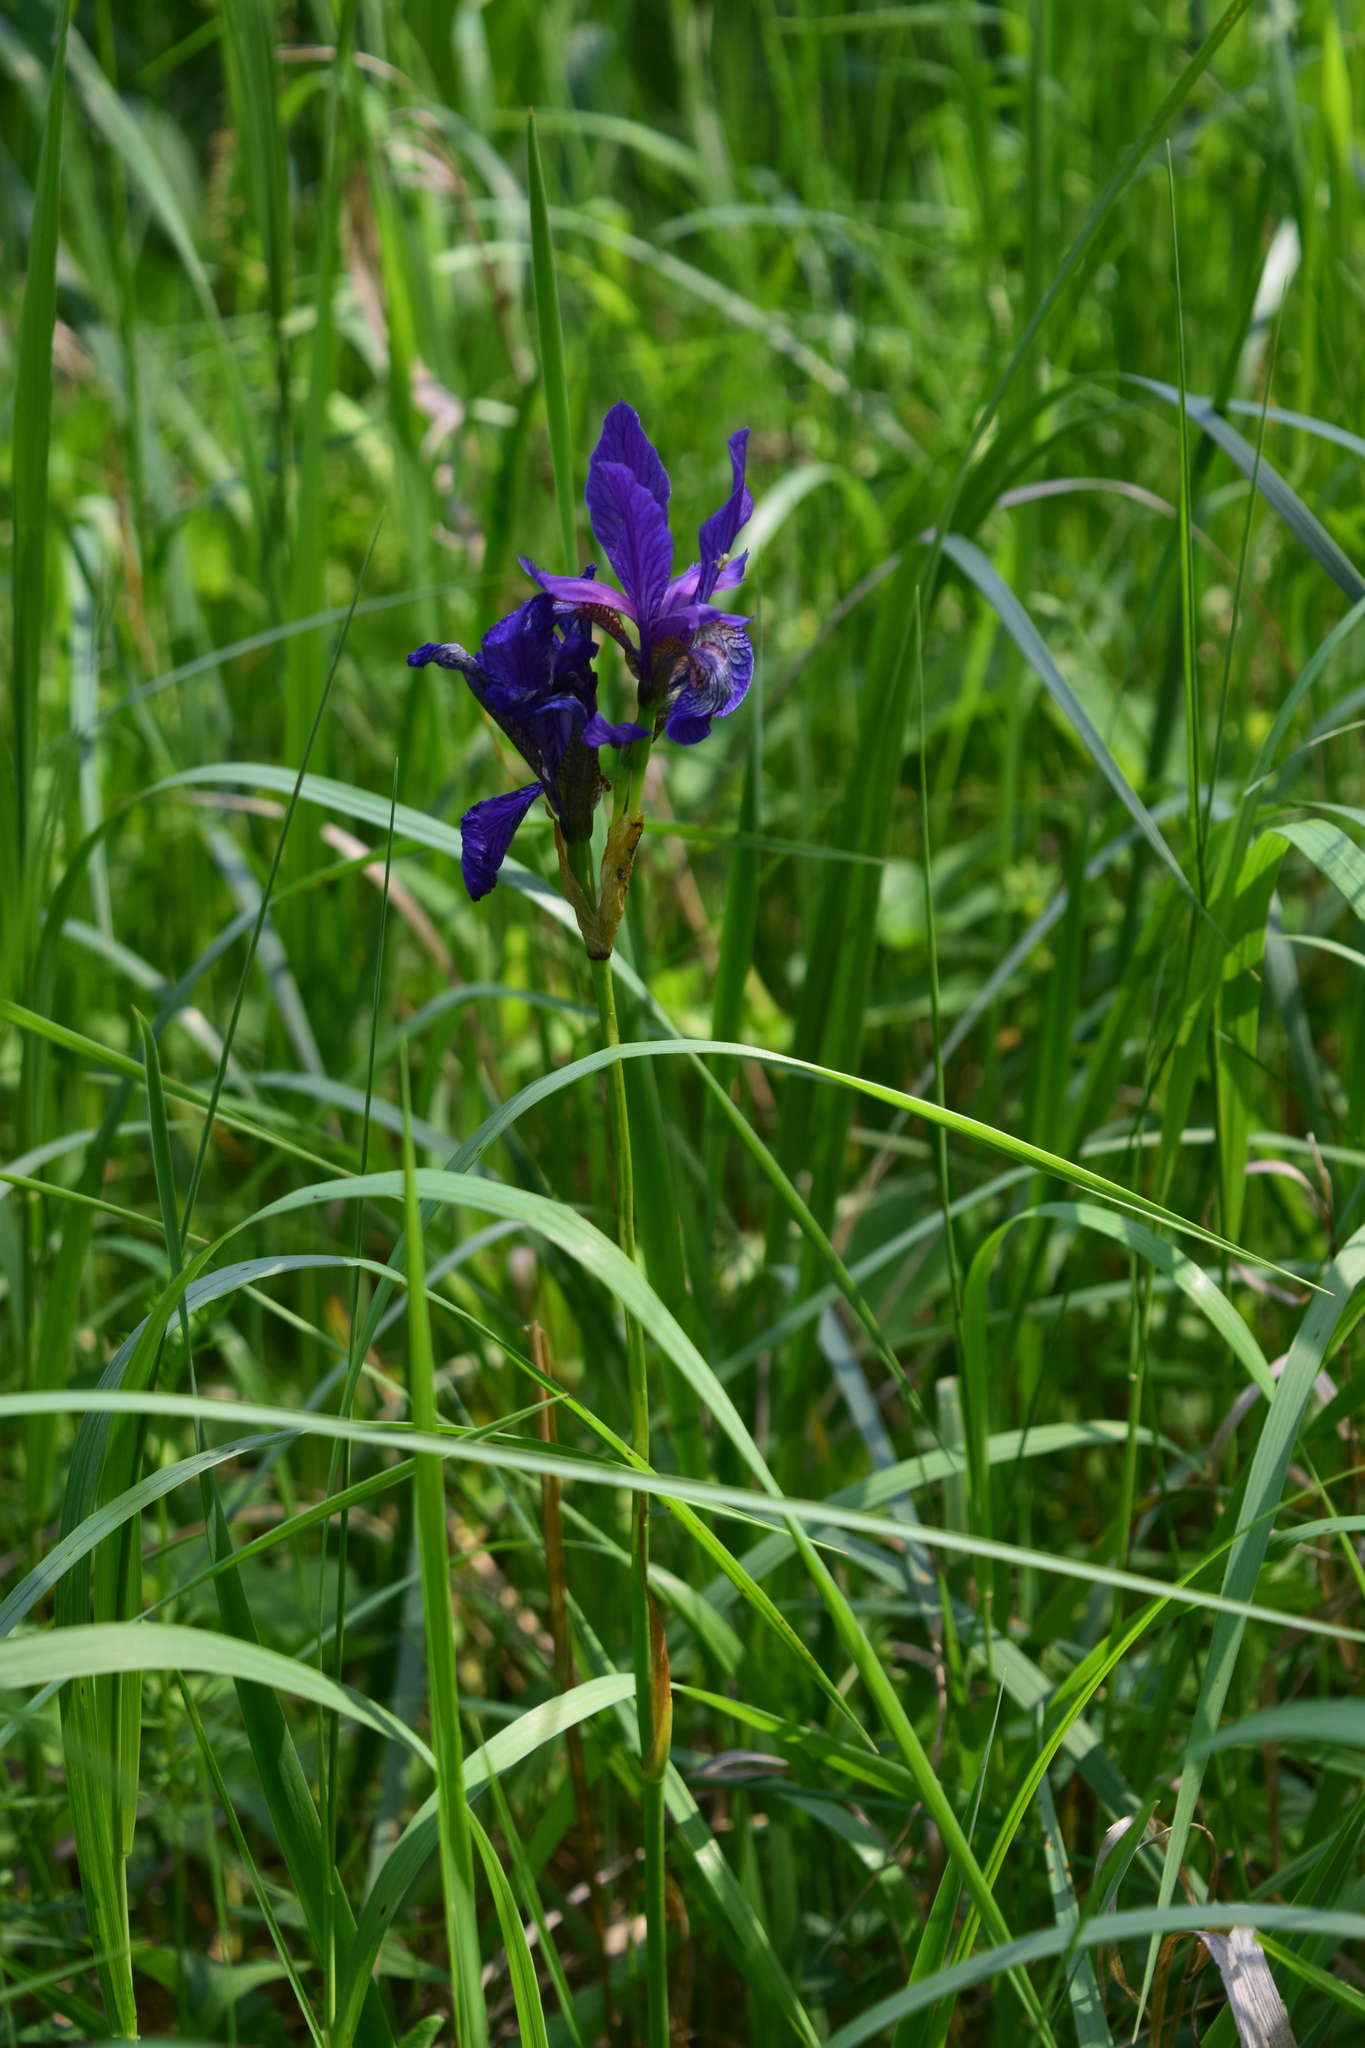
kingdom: Plantae
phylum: Tracheophyta
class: Liliopsida
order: Asparagales
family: Iridaceae
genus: Iris
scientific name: Iris sibirica
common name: Siberian iris
